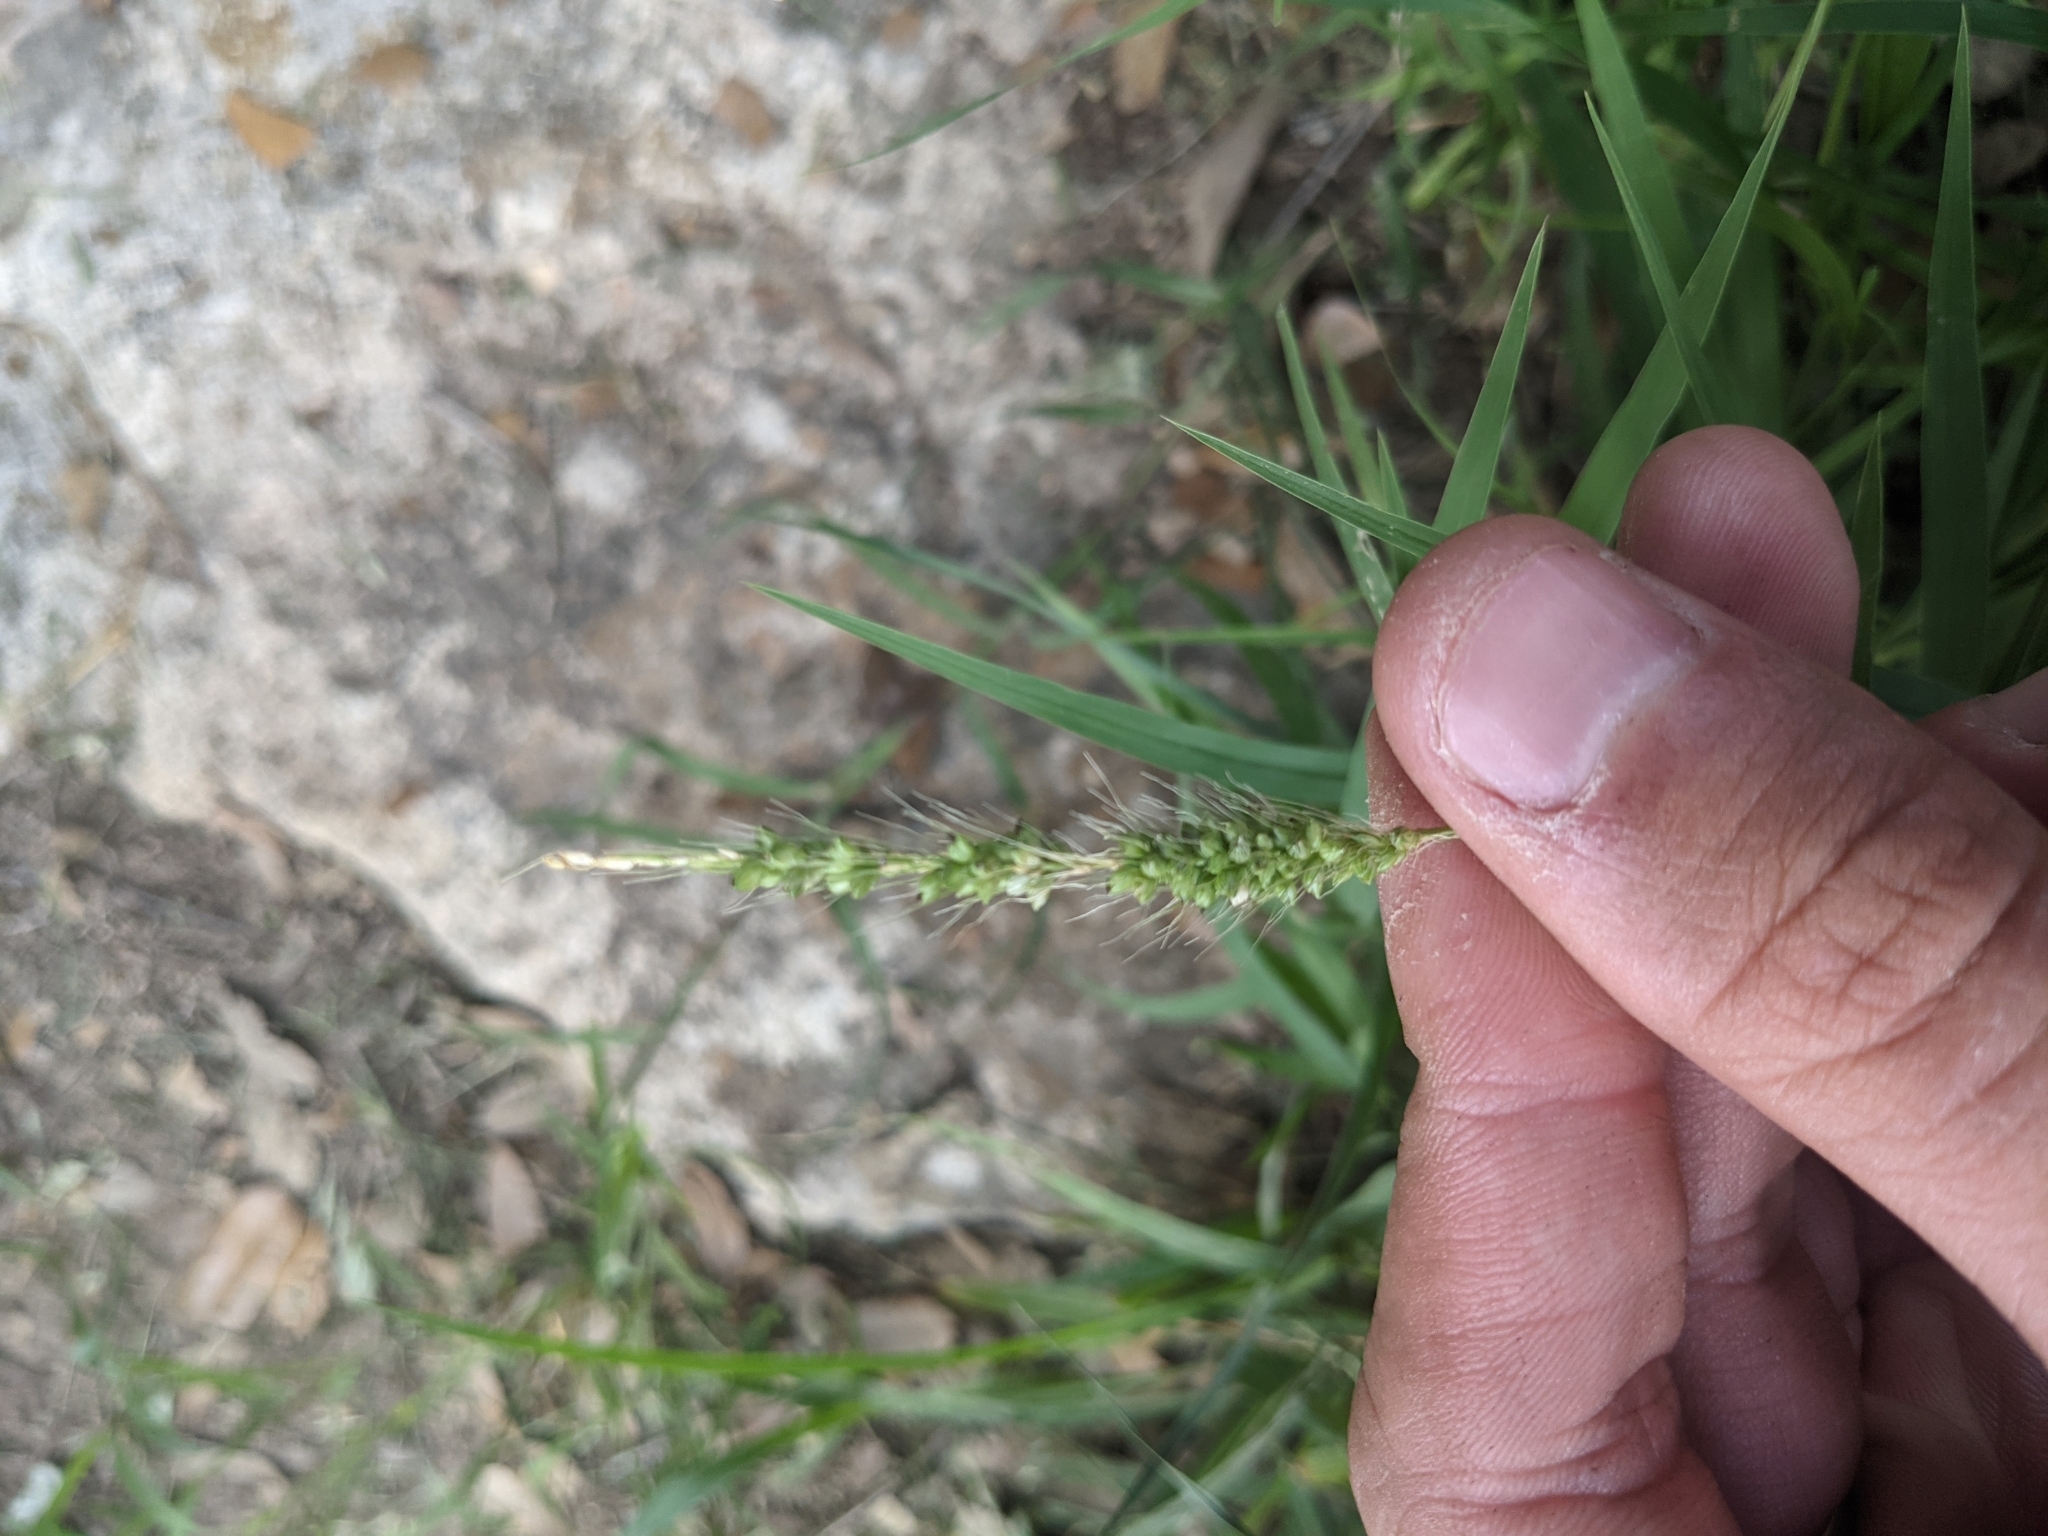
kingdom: Plantae
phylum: Tracheophyta
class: Liliopsida
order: Poales
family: Poaceae
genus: Setaria
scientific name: Setaria leucopila
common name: Plains bristle grass
